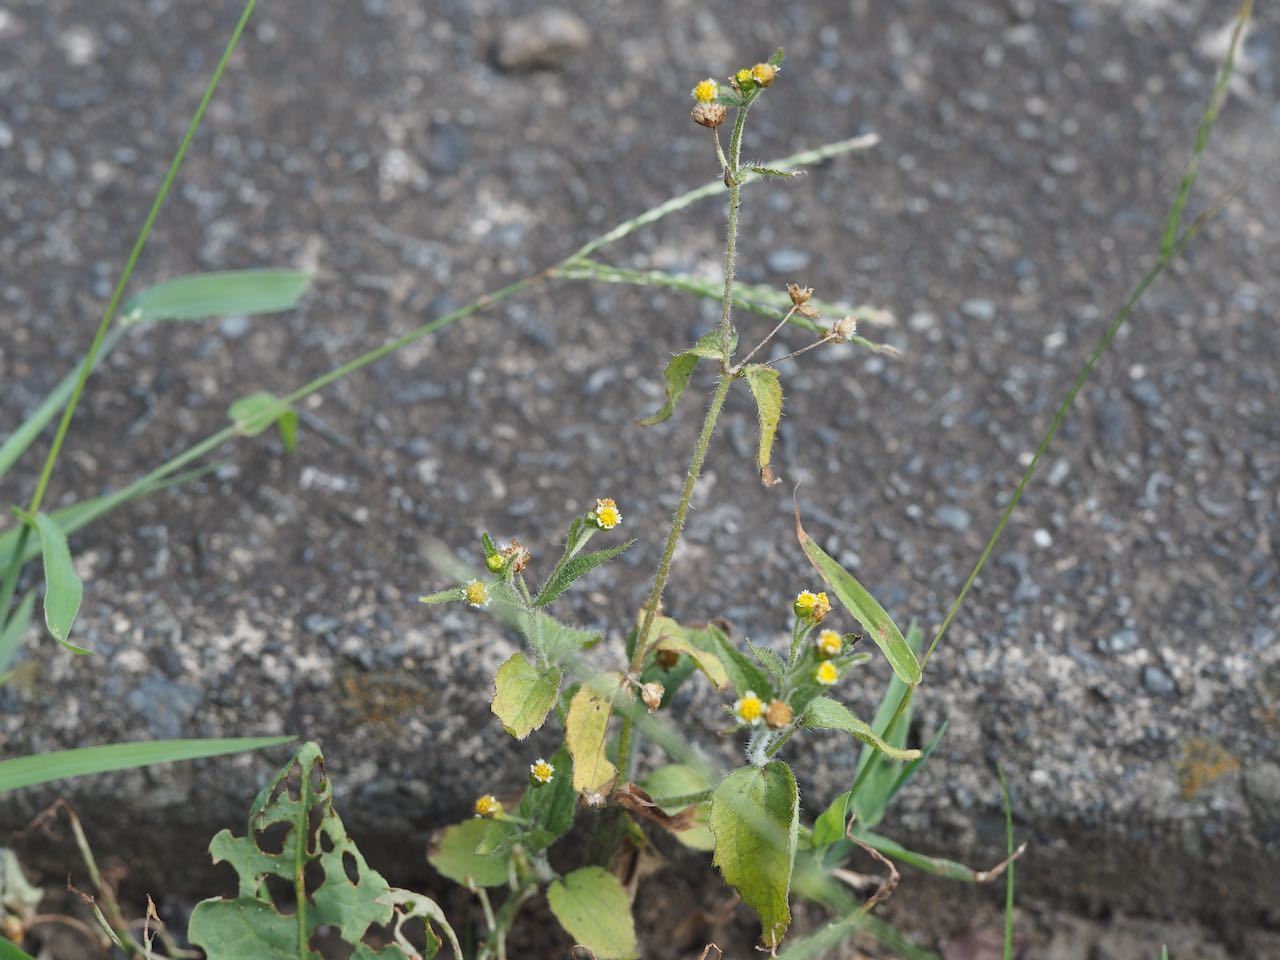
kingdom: Plantae
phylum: Tracheophyta
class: Magnoliopsida
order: Asterales
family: Asteraceae
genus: Galinsoga
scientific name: Galinsoga quadriradiata
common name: Shaggy soldier
